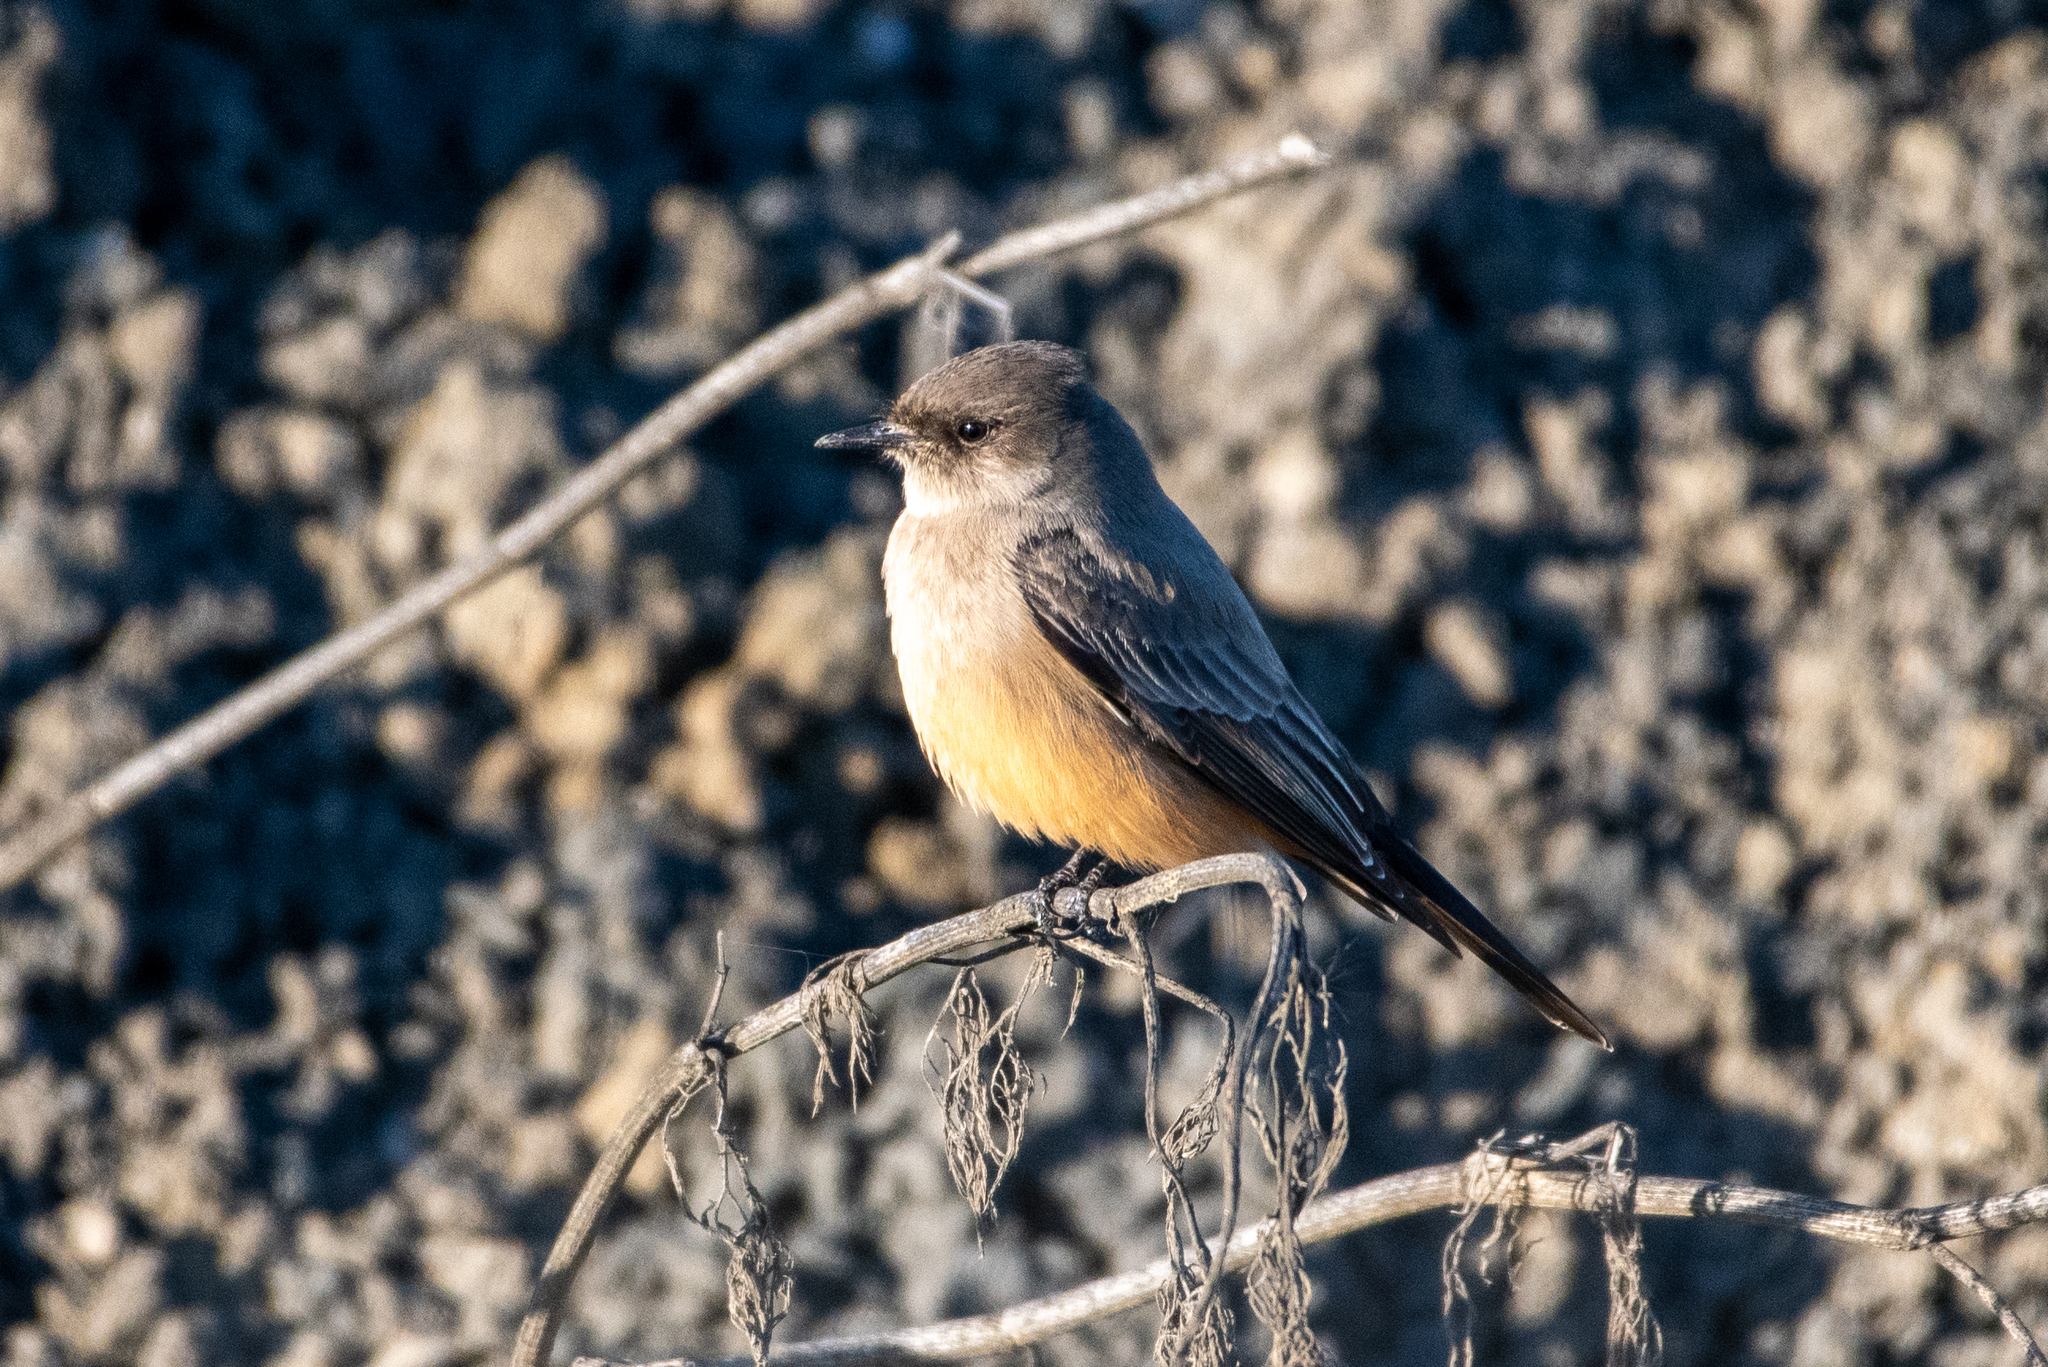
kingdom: Animalia
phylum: Chordata
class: Aves
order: Passeriformes
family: Tyrannidae
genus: Sayornis
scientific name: Sayornis saya
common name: Say's phoebe
